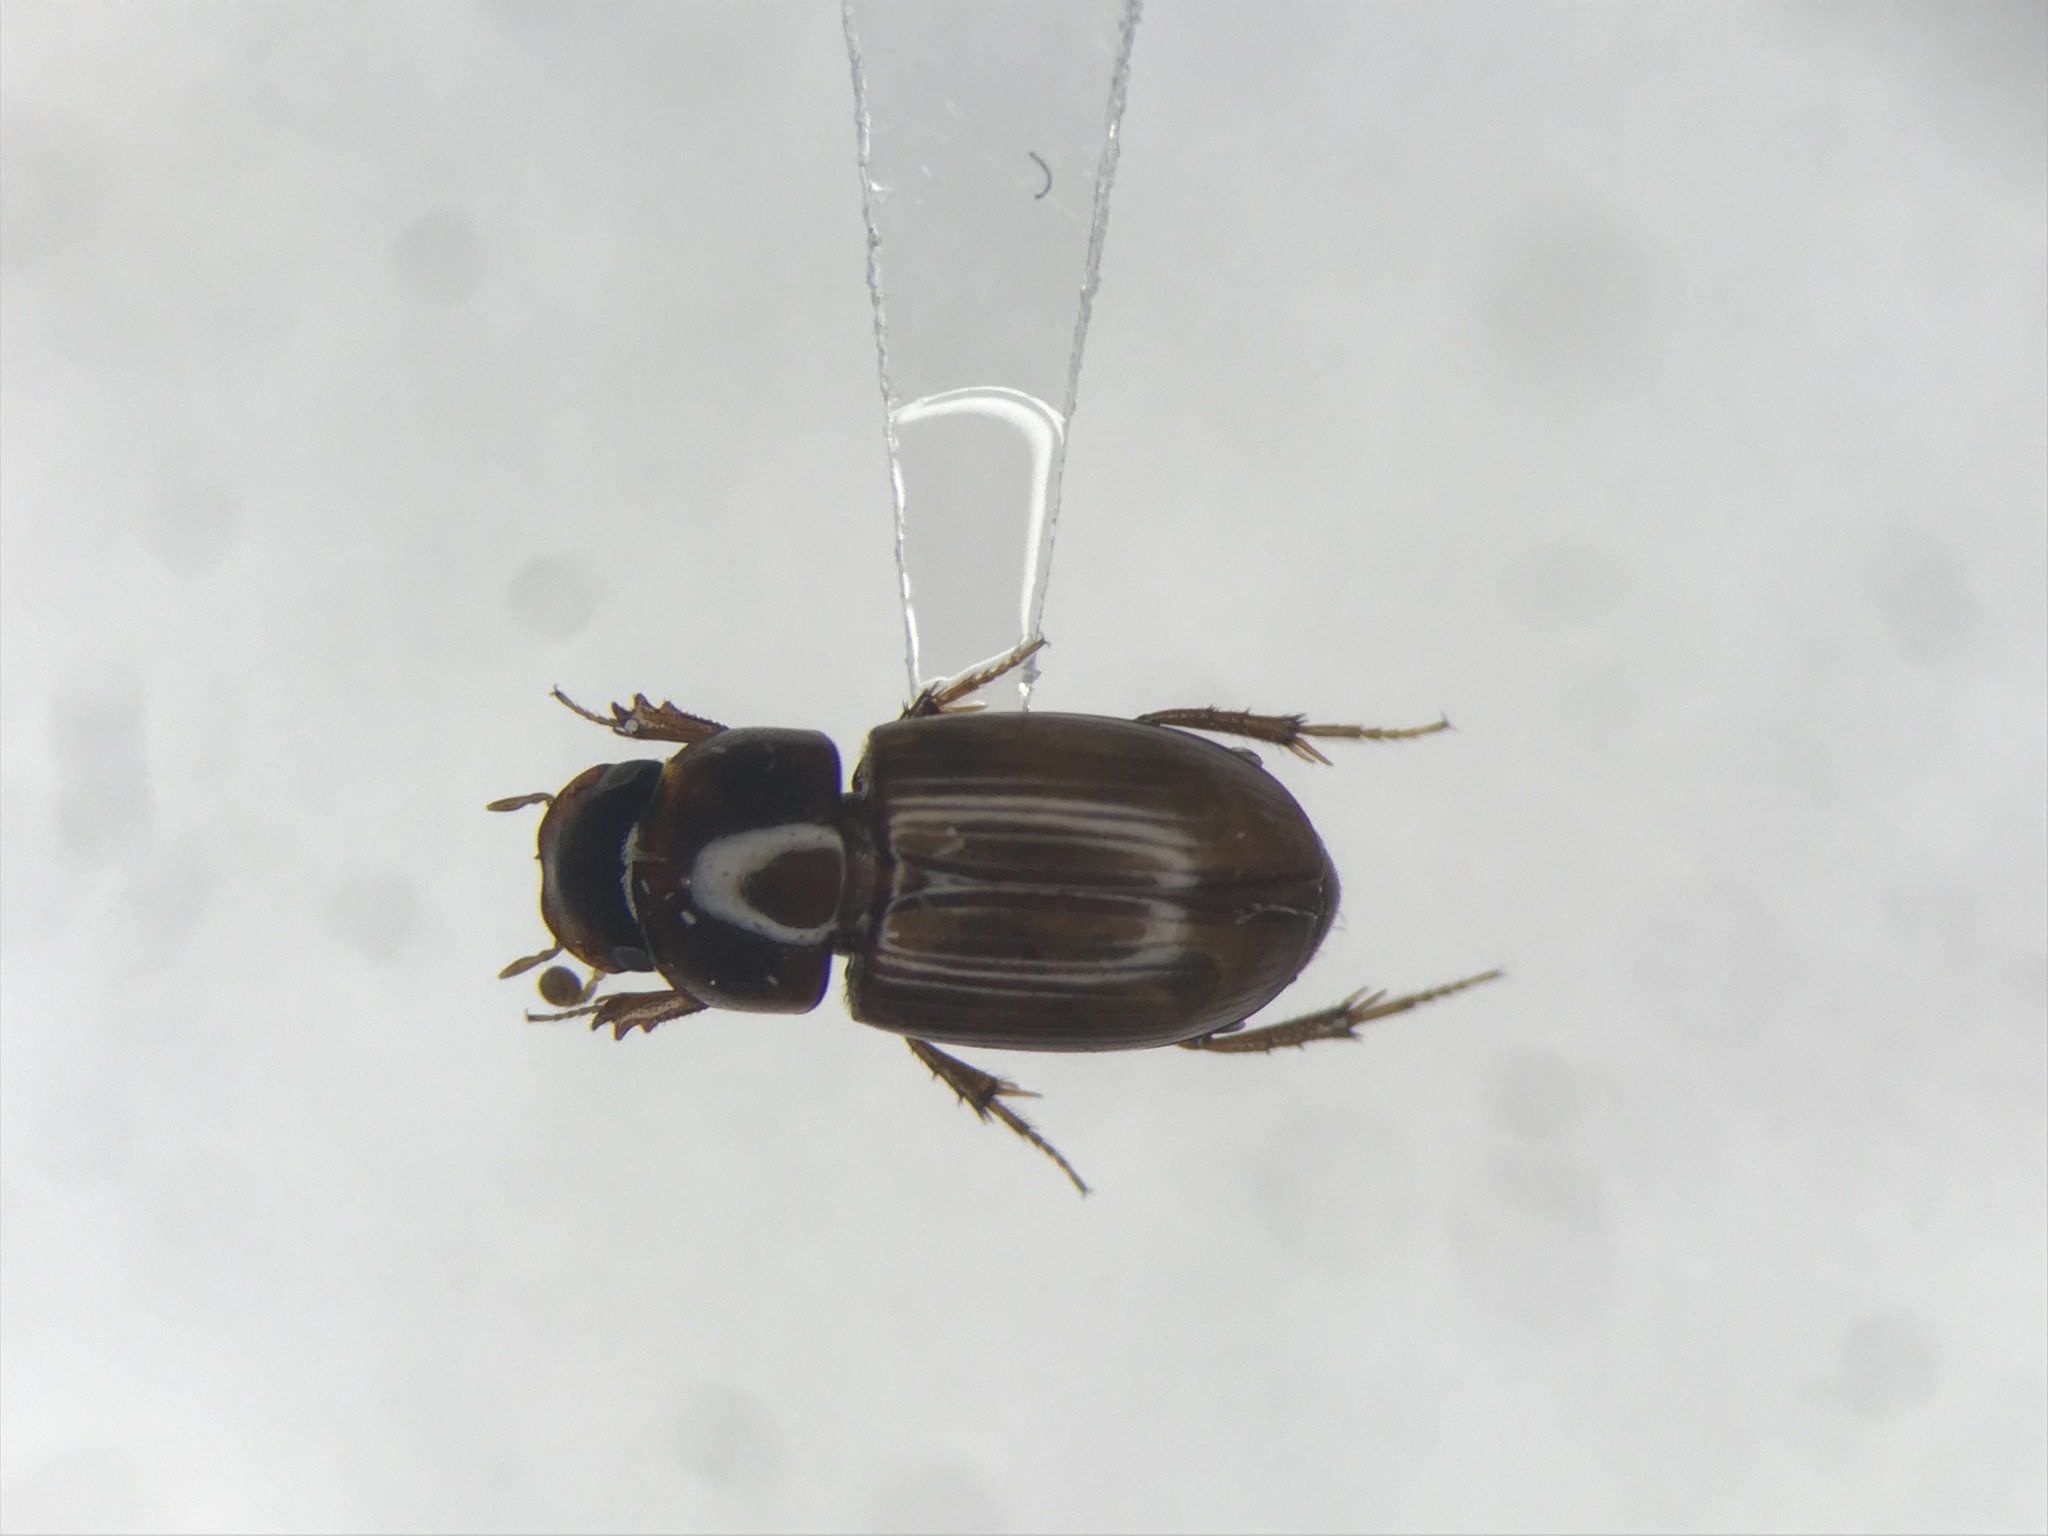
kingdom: Animalia
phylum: Arthropoda
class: Insecta
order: Coleoptera
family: Scarabaeidae
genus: Blackburneus
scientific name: Blackburneus stercorosus
